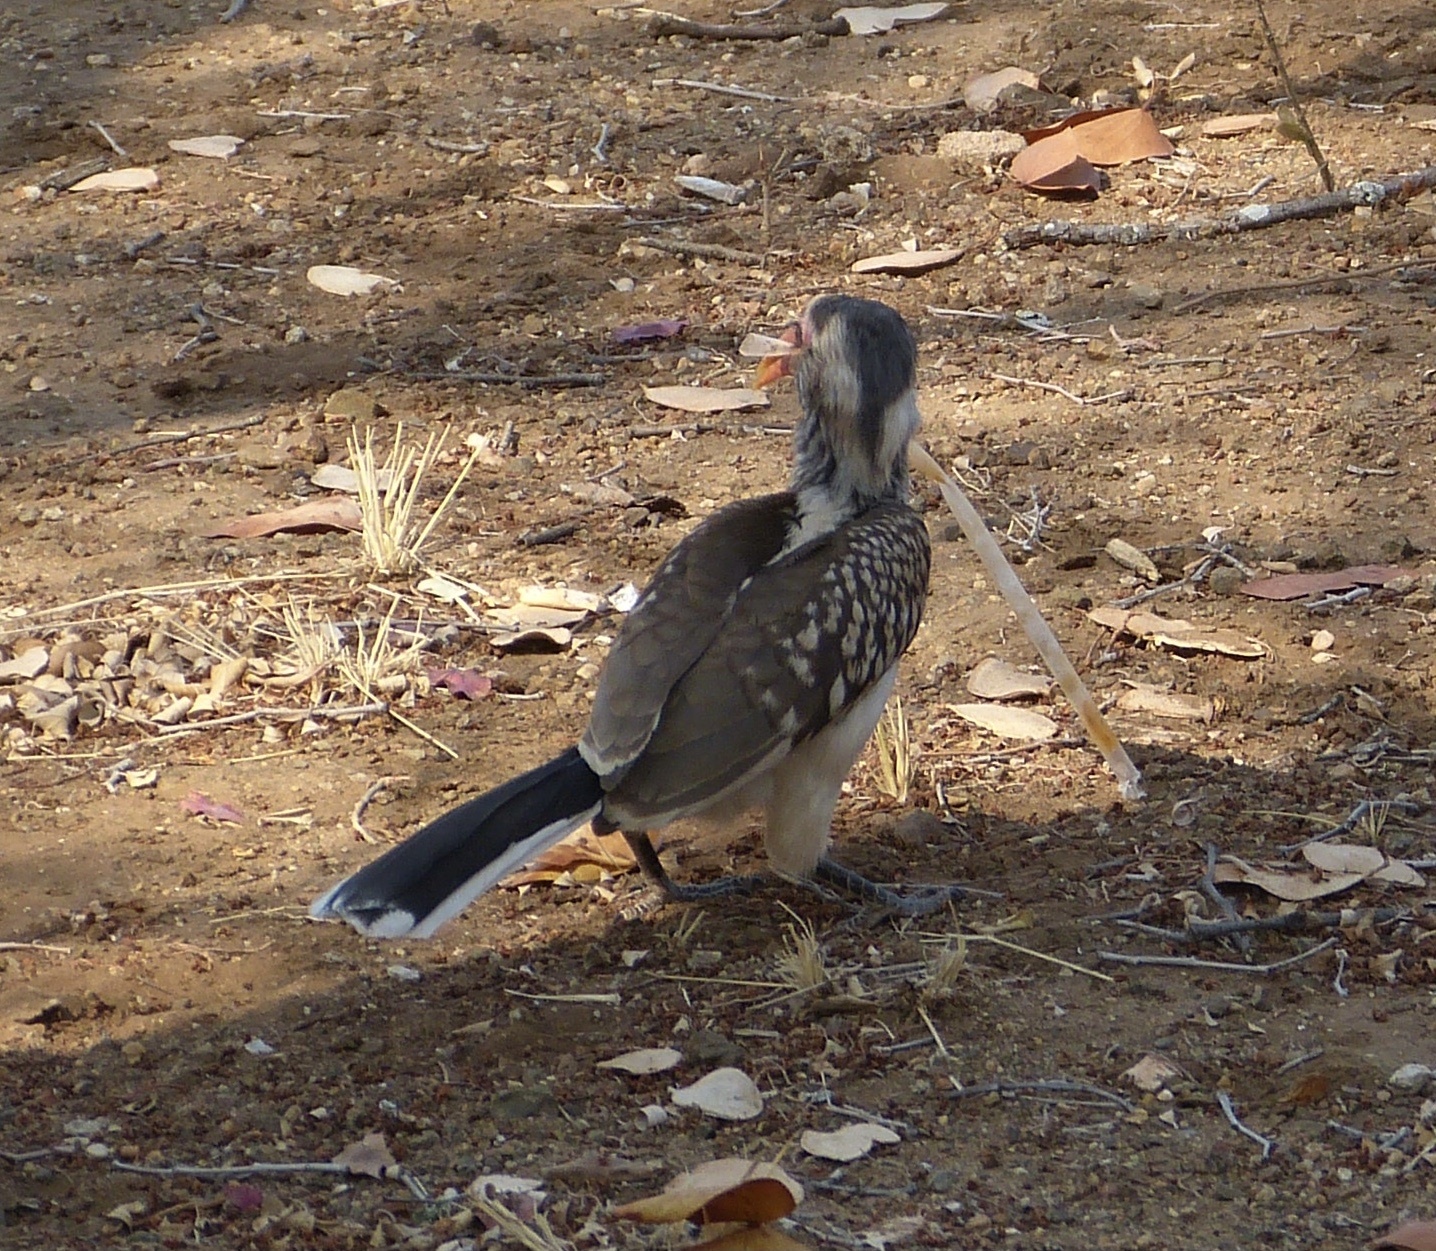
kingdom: Animalia
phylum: Chordata
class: Aves
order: Bucerotiformes
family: Bucerotidae
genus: Tockus
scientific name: Tockus rufirostris
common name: Southern red-billed hornbill
